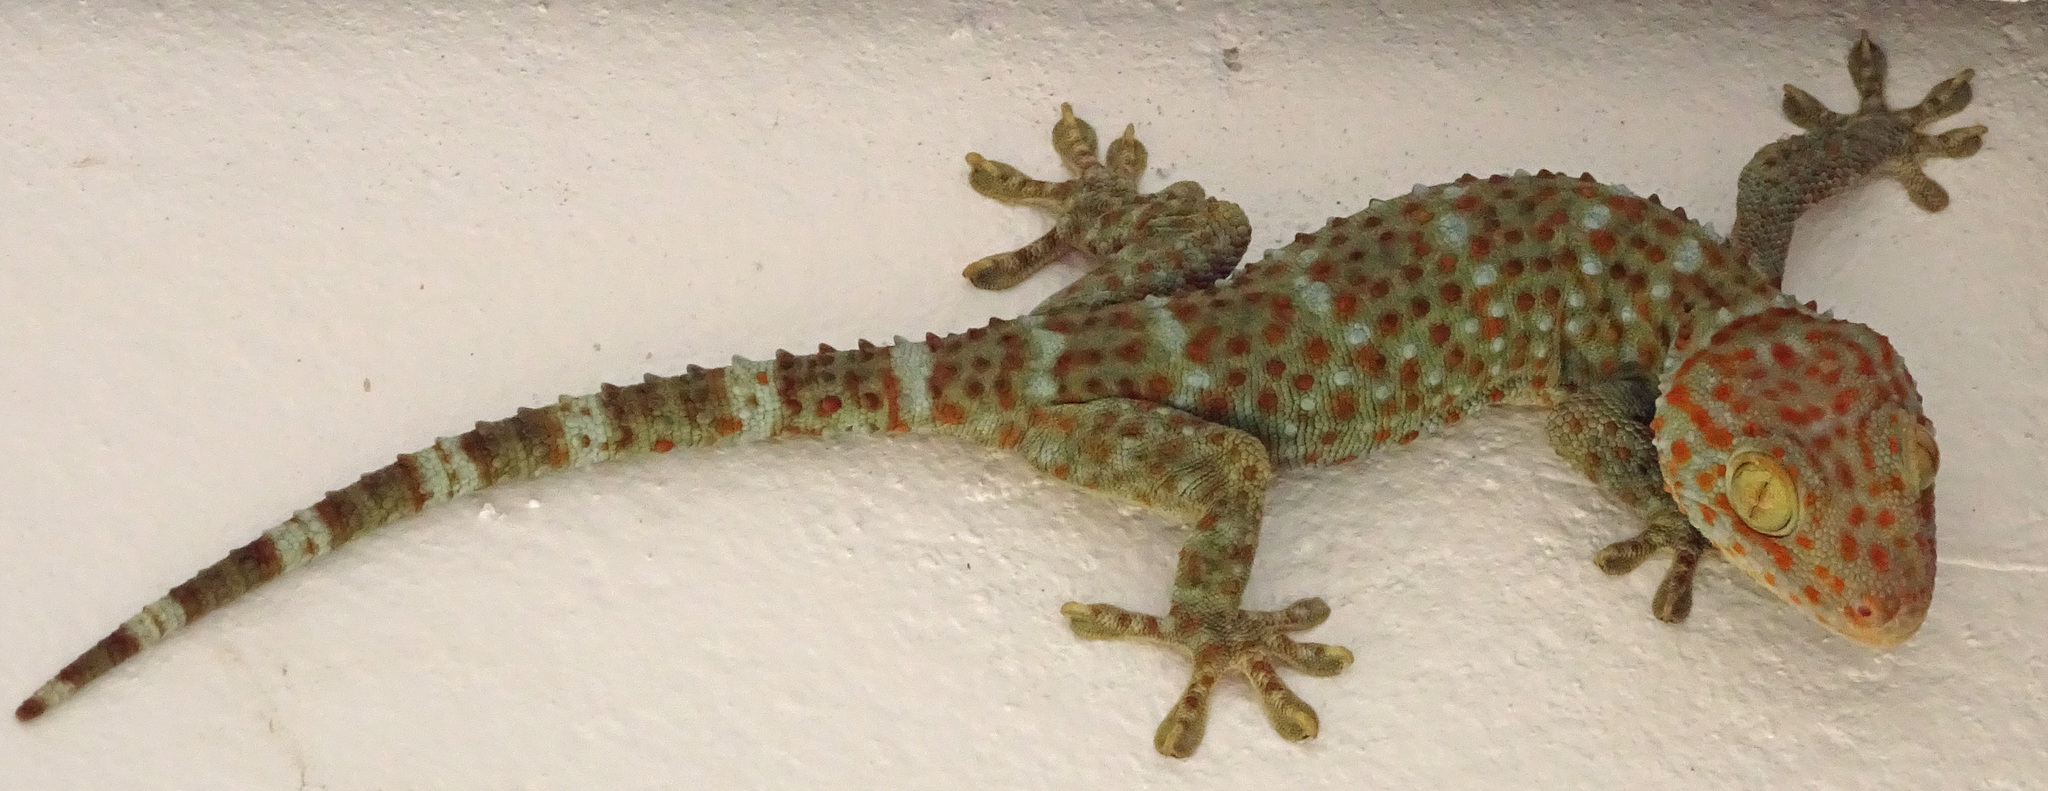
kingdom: Animalia
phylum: Chordata
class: Squamata
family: Gekkonidae
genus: Gekko
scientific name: Gekko gecko
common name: Tokay gecko
